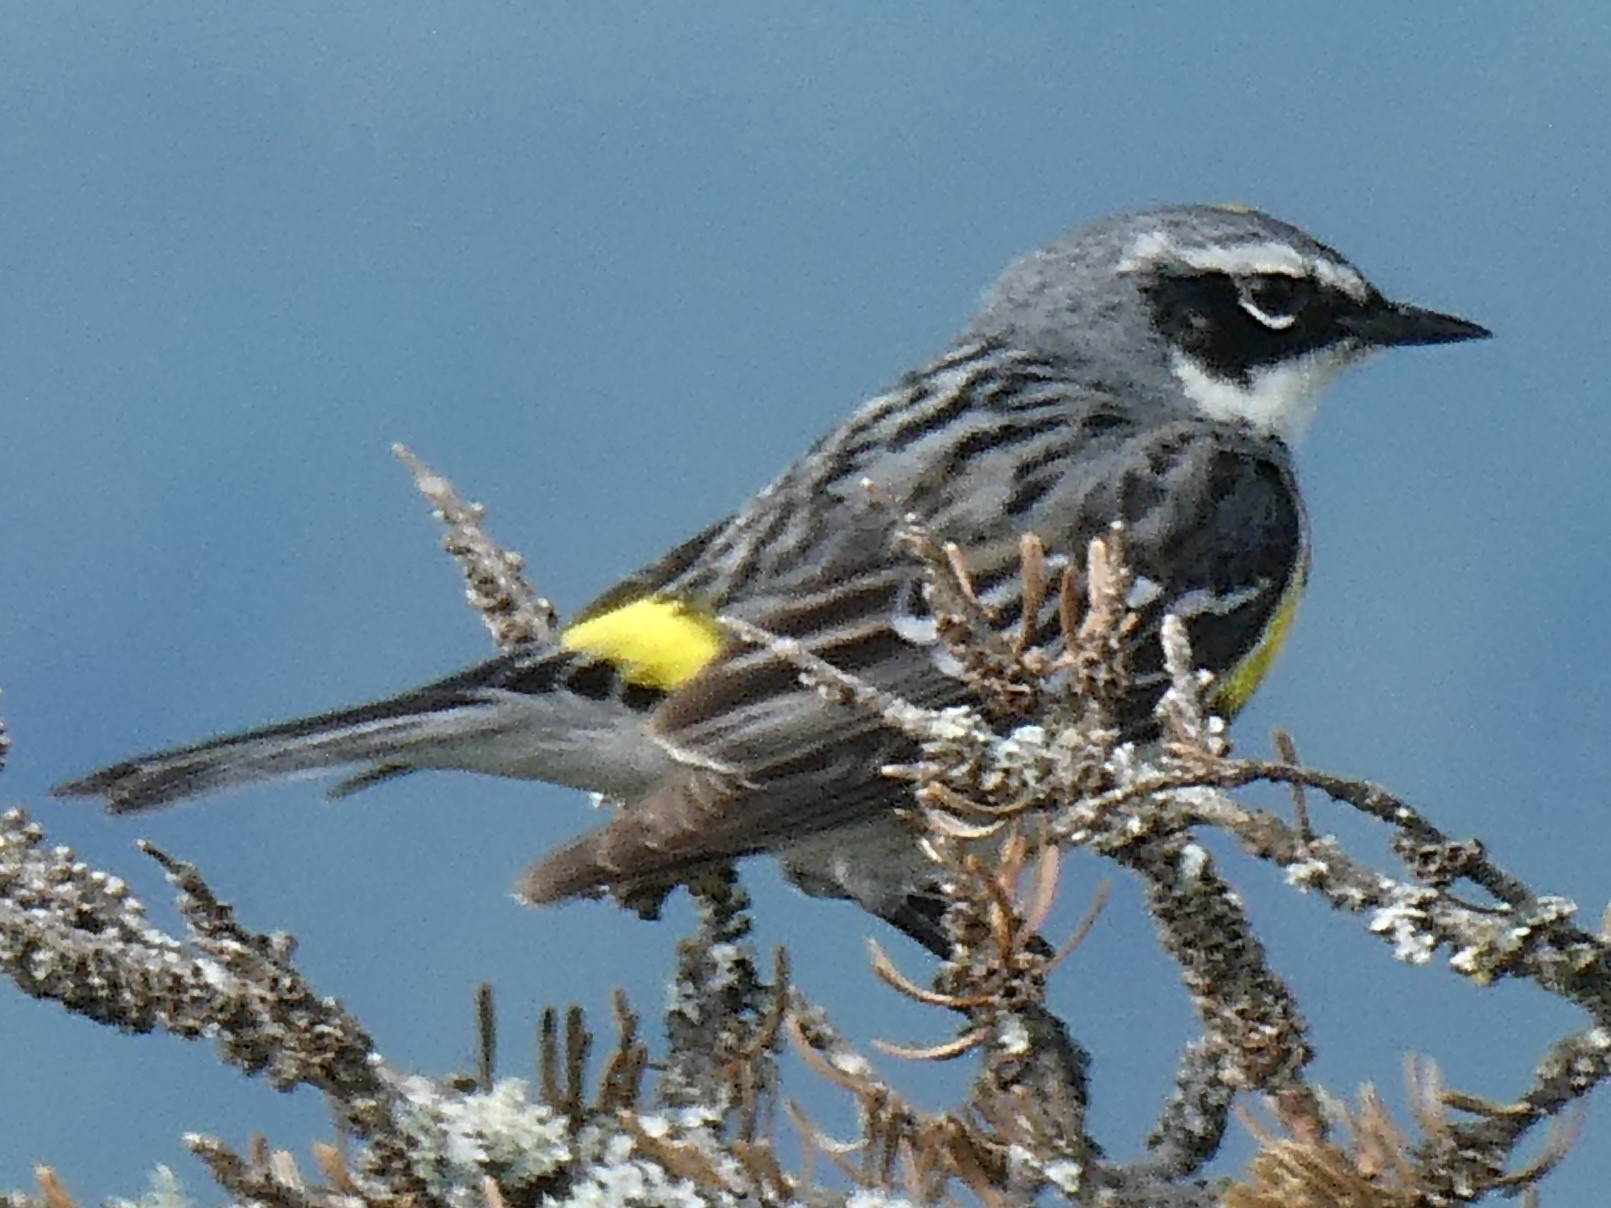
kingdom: Animalia
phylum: Chordata
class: Aves
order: Passeriformes
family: Parulidae
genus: Setophaga
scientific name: Setophaga coronata
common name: Myrtle warbler
